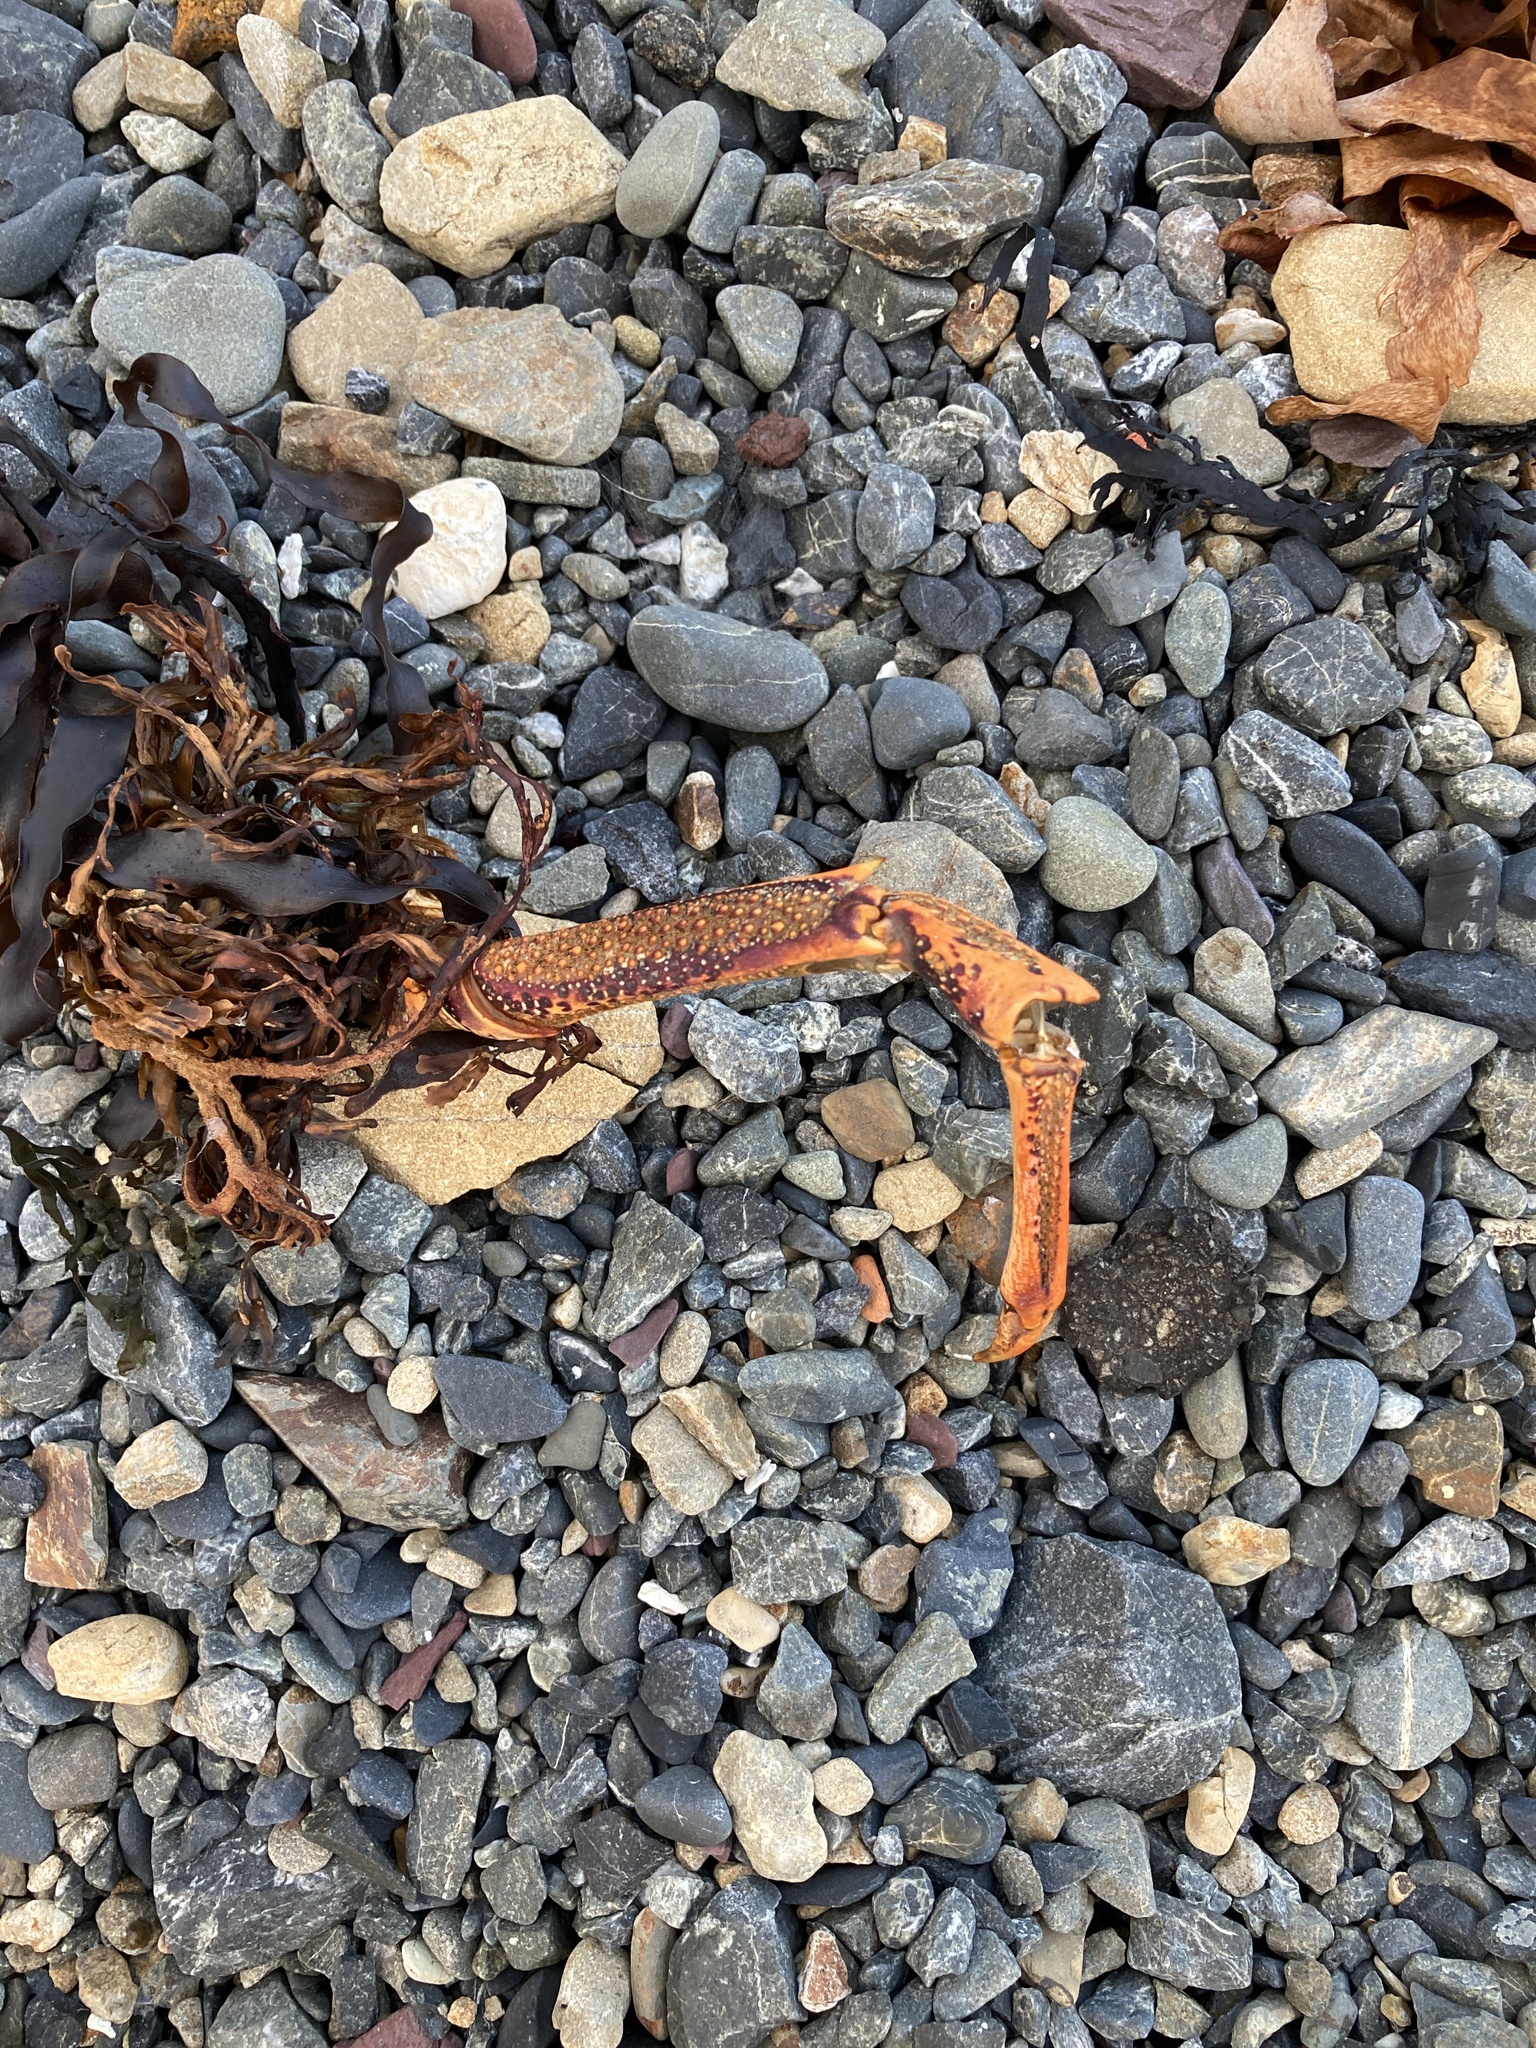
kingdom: Animalia
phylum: Arthropoda
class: Malacostraca
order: Decapoda
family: Palinuridae
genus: Jasus
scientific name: Jasus edwardsii
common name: Red rock lobster
